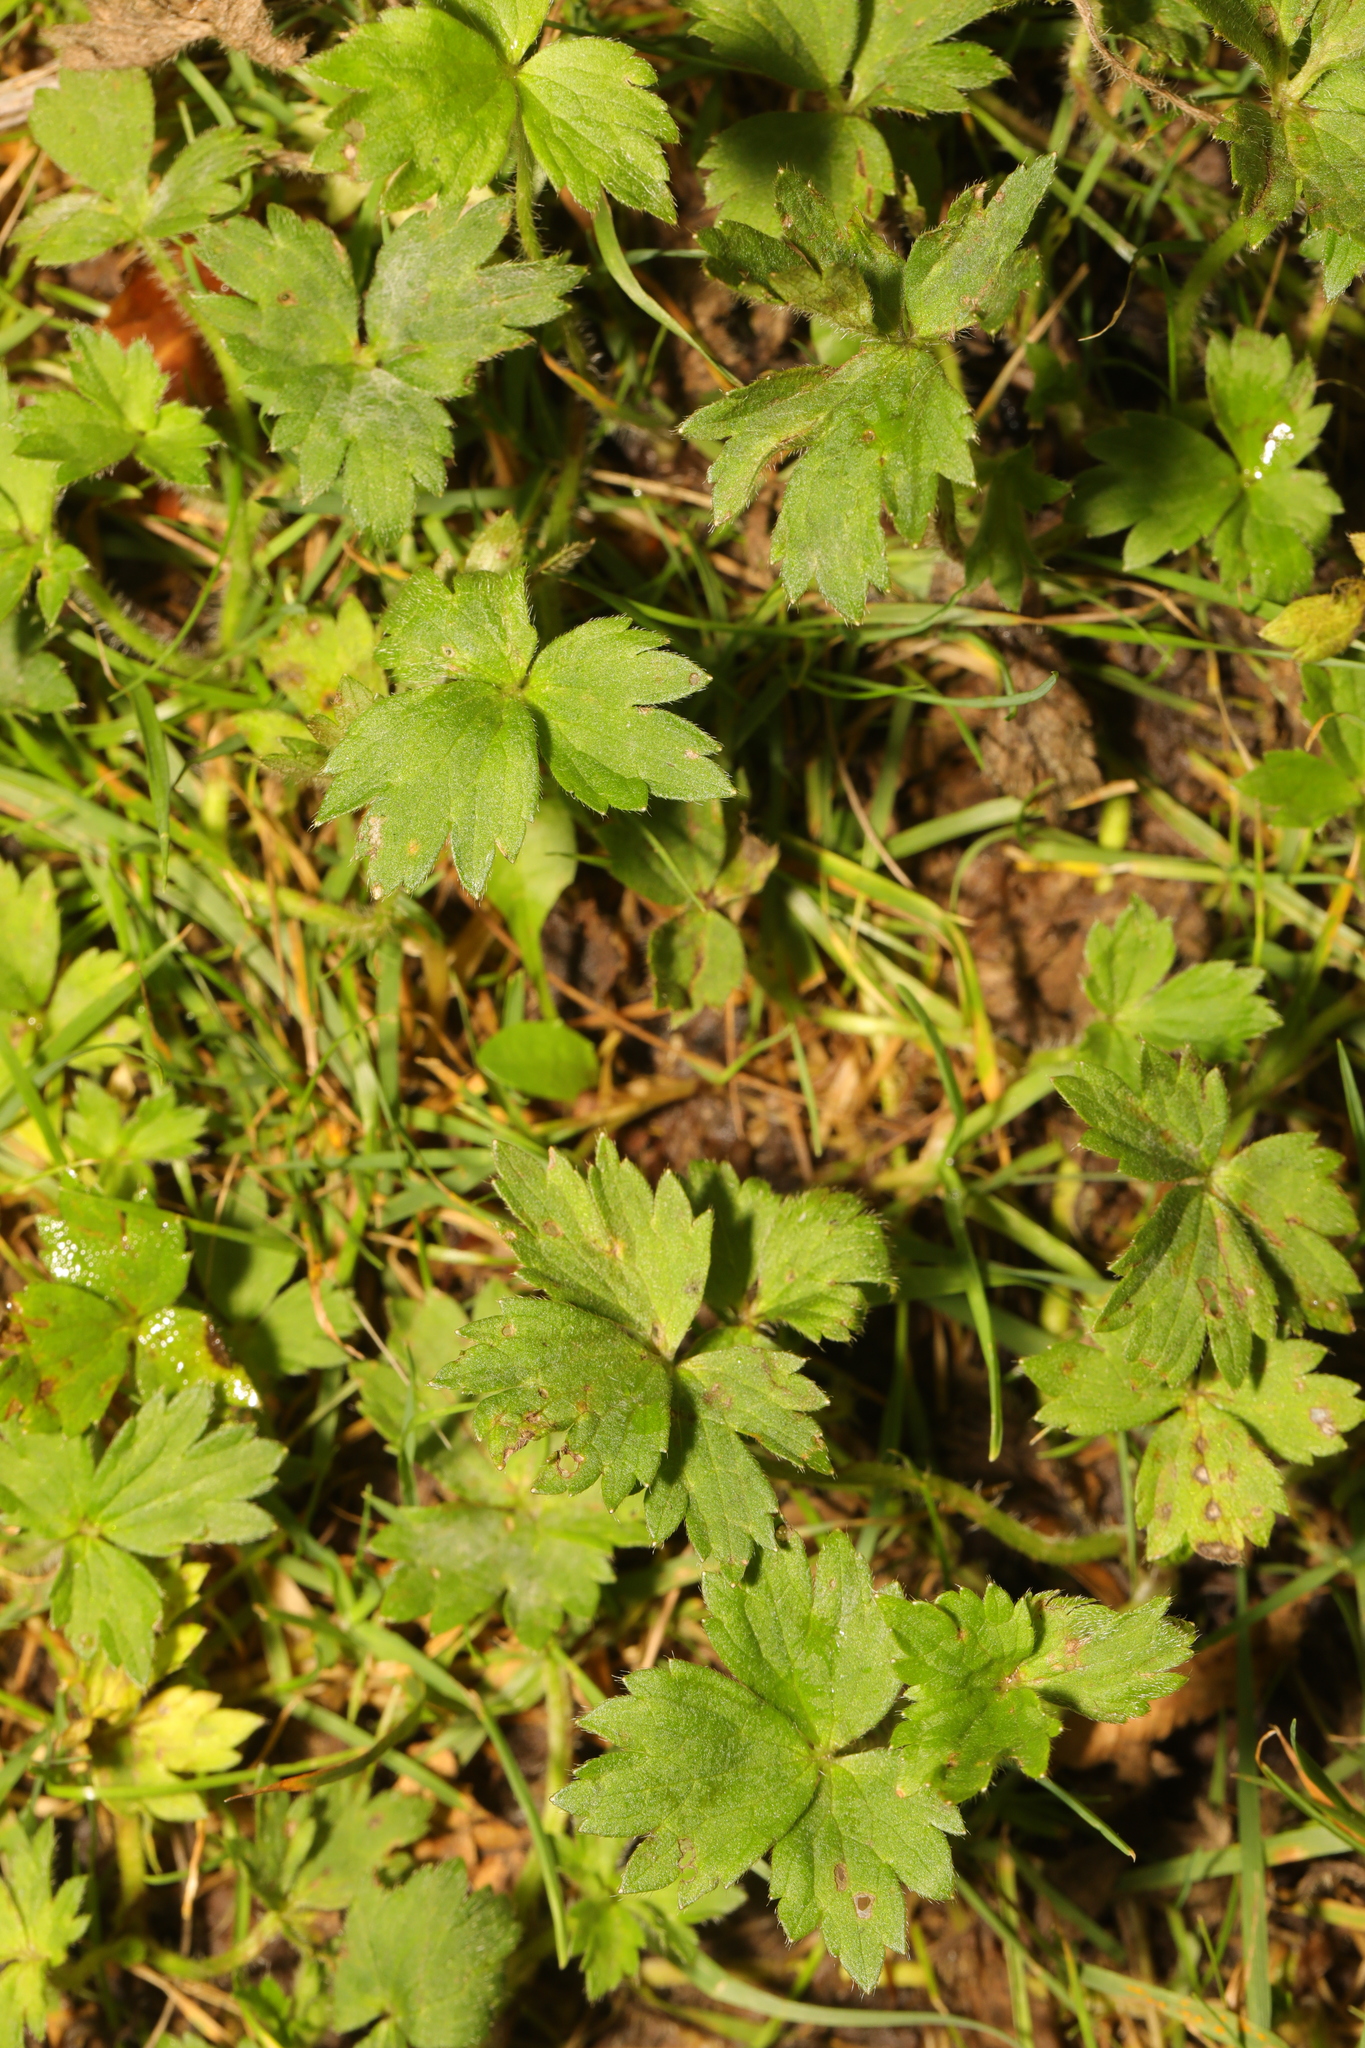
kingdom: Plantae
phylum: Tracheophyta
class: Magnoliopsida
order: Ranunculales
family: Ranunculaceae
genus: Ranunculus
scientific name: Ranunculus repens
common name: Creeping buttercup
